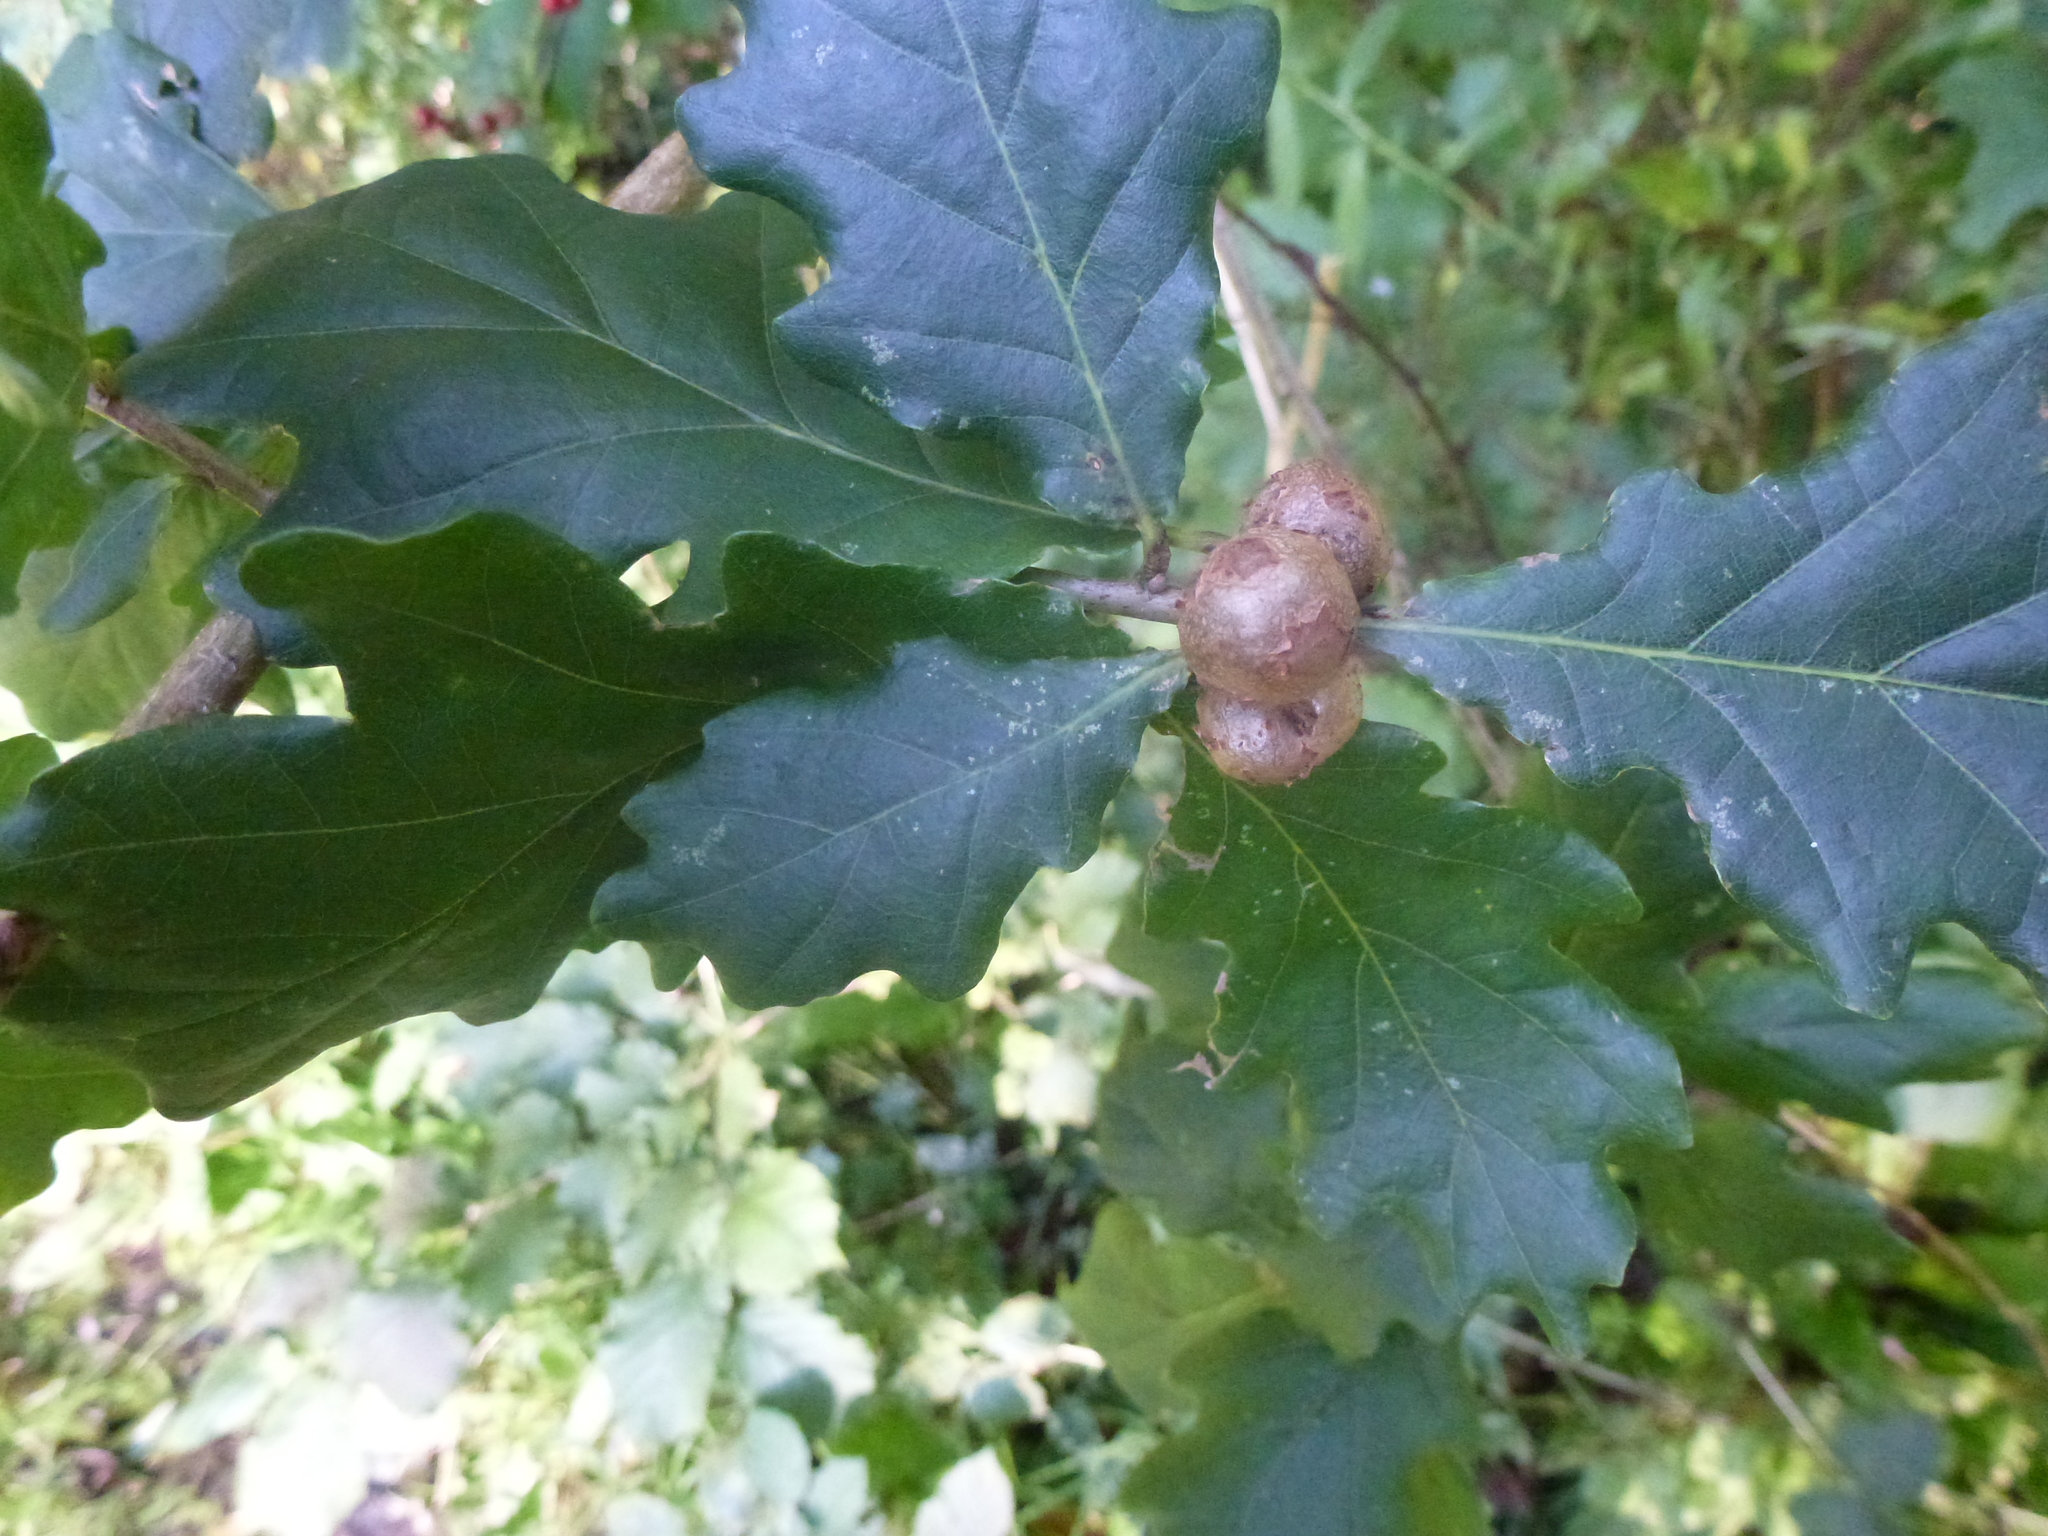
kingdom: Animalia
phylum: Arthropoda
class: Insecta
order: Hymenoptera
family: Cynipidae
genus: Andricus
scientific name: Andricus lignicolus
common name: Cola-nut gall
